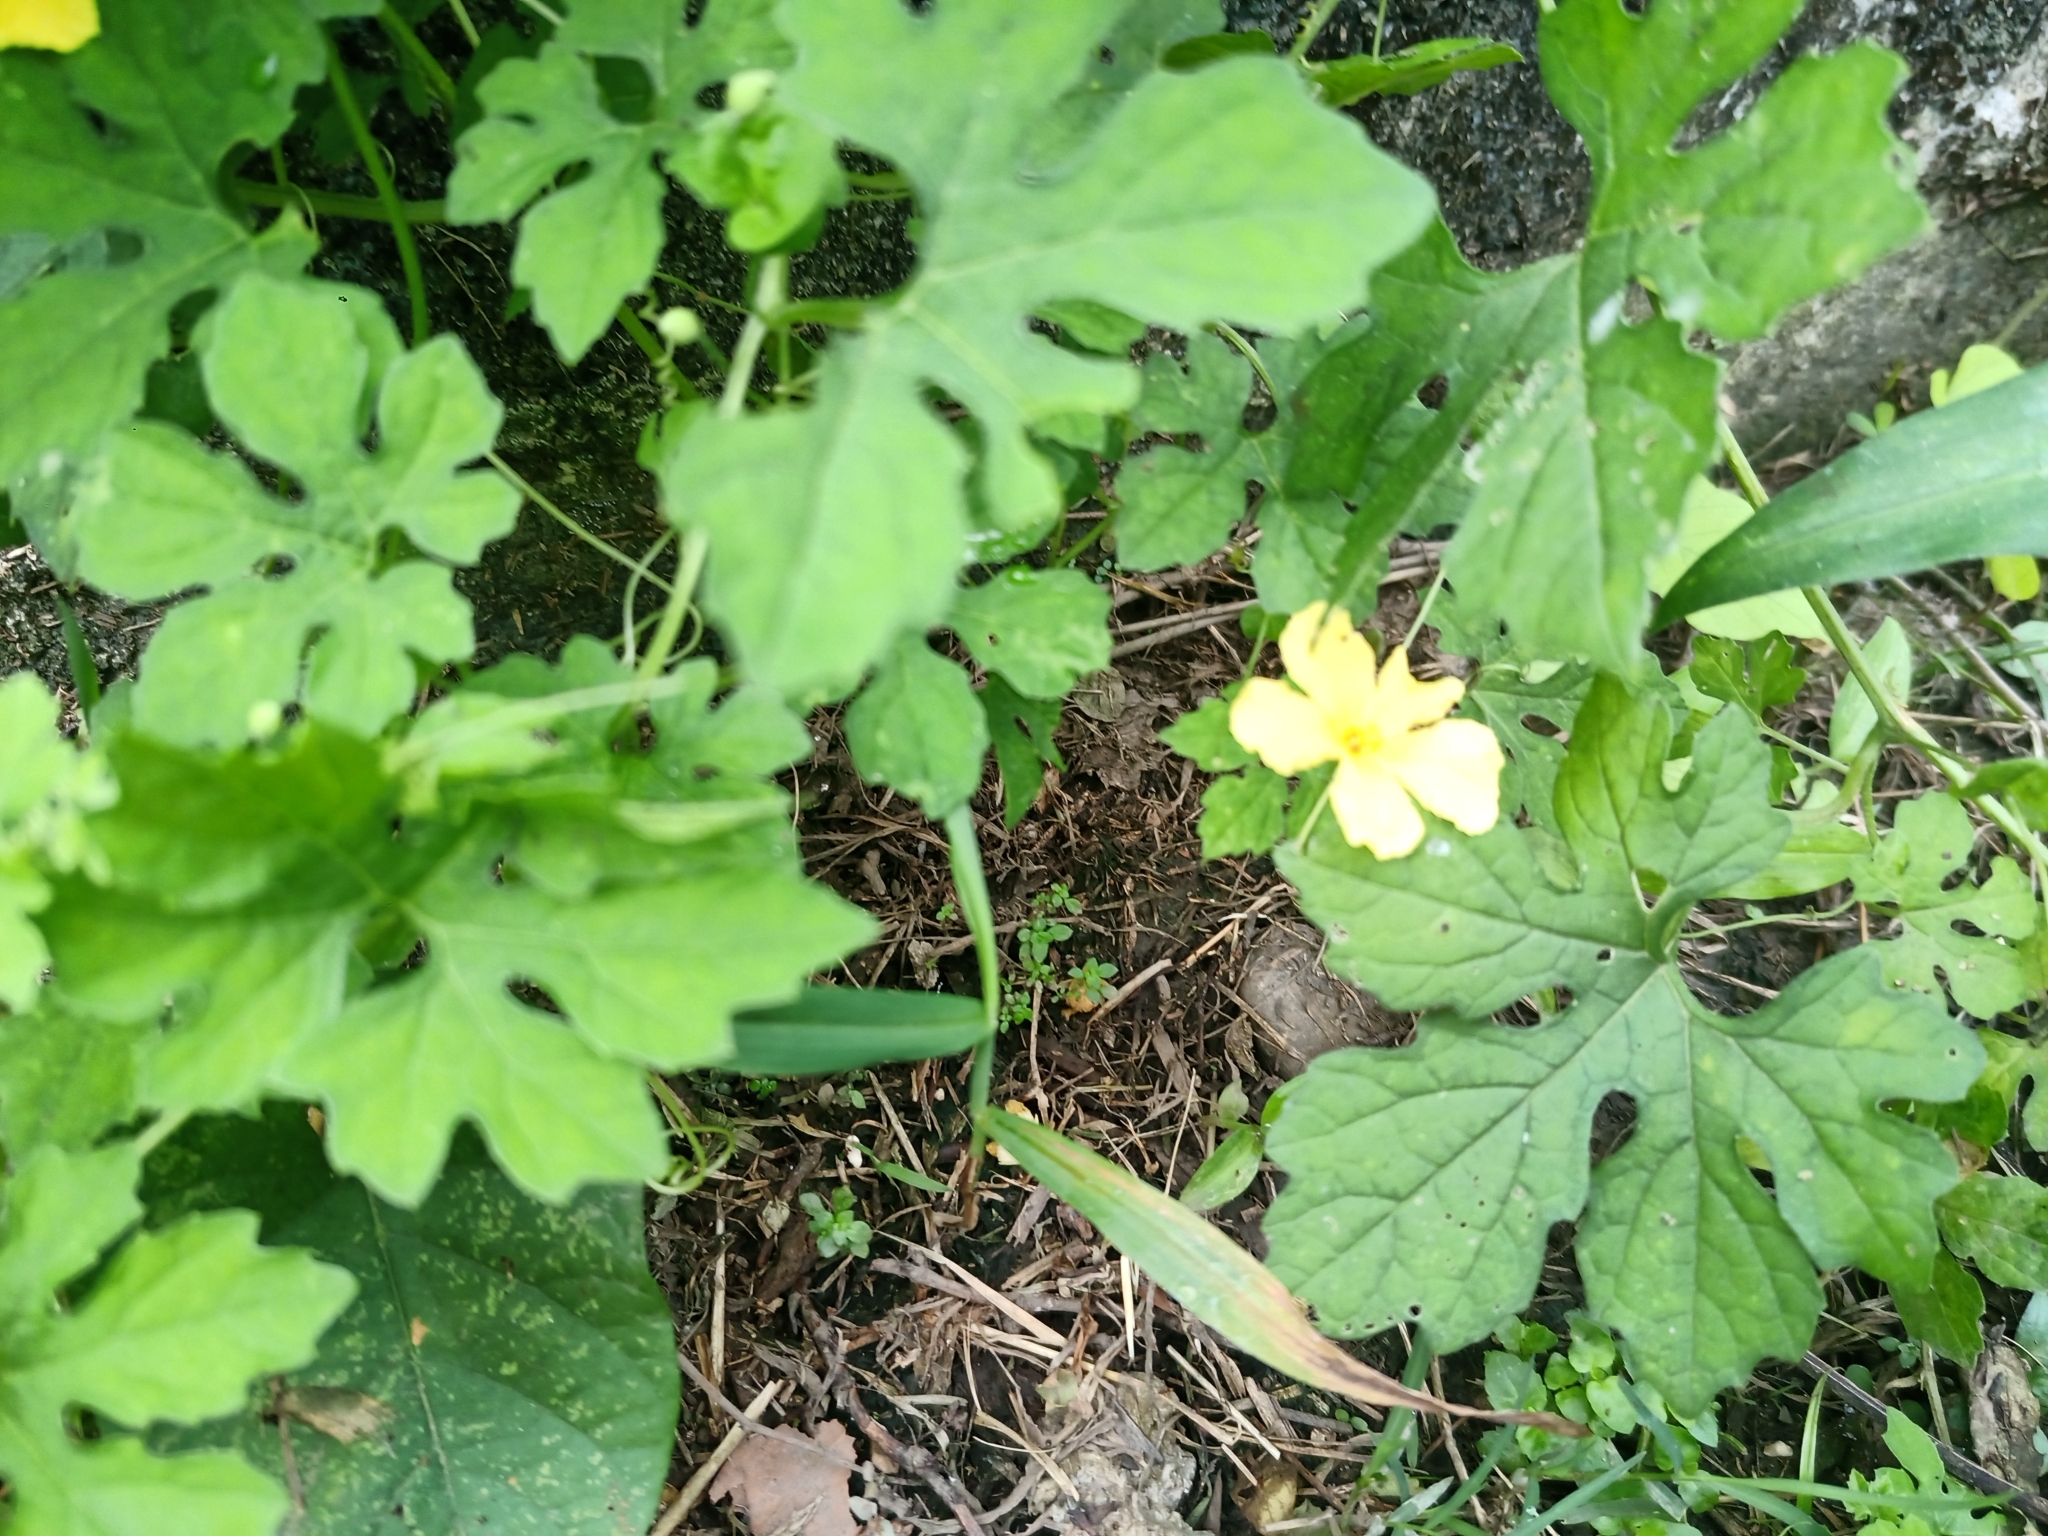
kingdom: Plantae
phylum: Tracheophyta
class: Magnoliopsida
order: Cucurbitales
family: Cucurbitaceae
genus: Momordica
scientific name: Momordica charantia
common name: Balsampear
